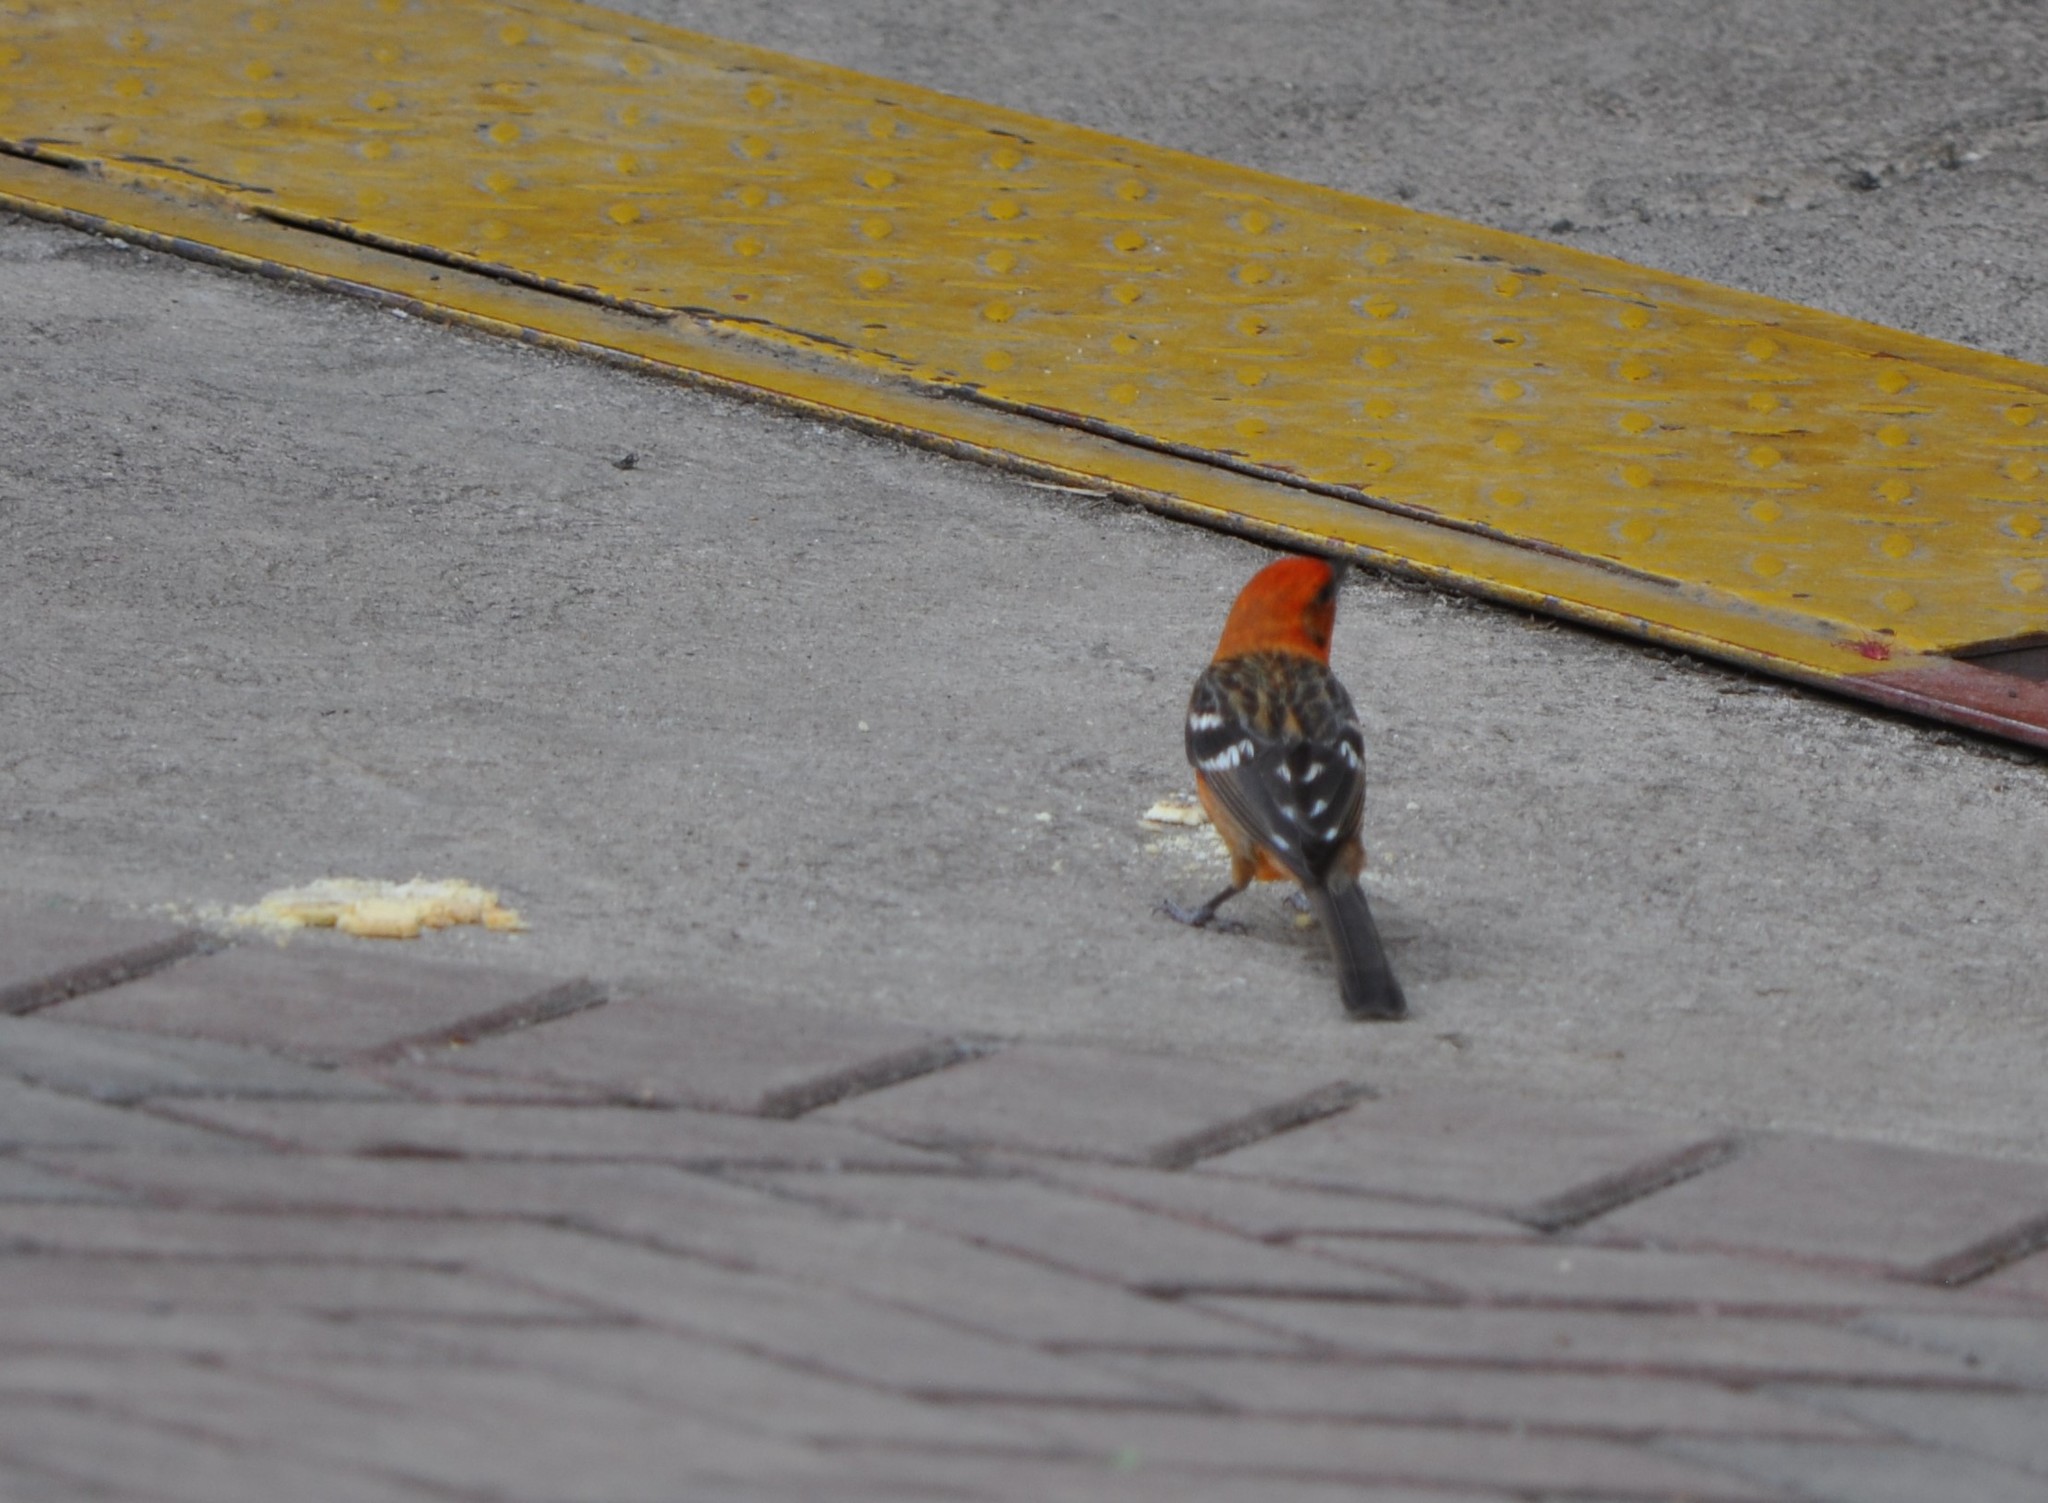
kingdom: Animalia
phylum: Chordata
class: Aves
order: Passeriformes
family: Cardinalidae
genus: Piranga
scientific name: Piranga bidentata
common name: Flame-colored tanager
